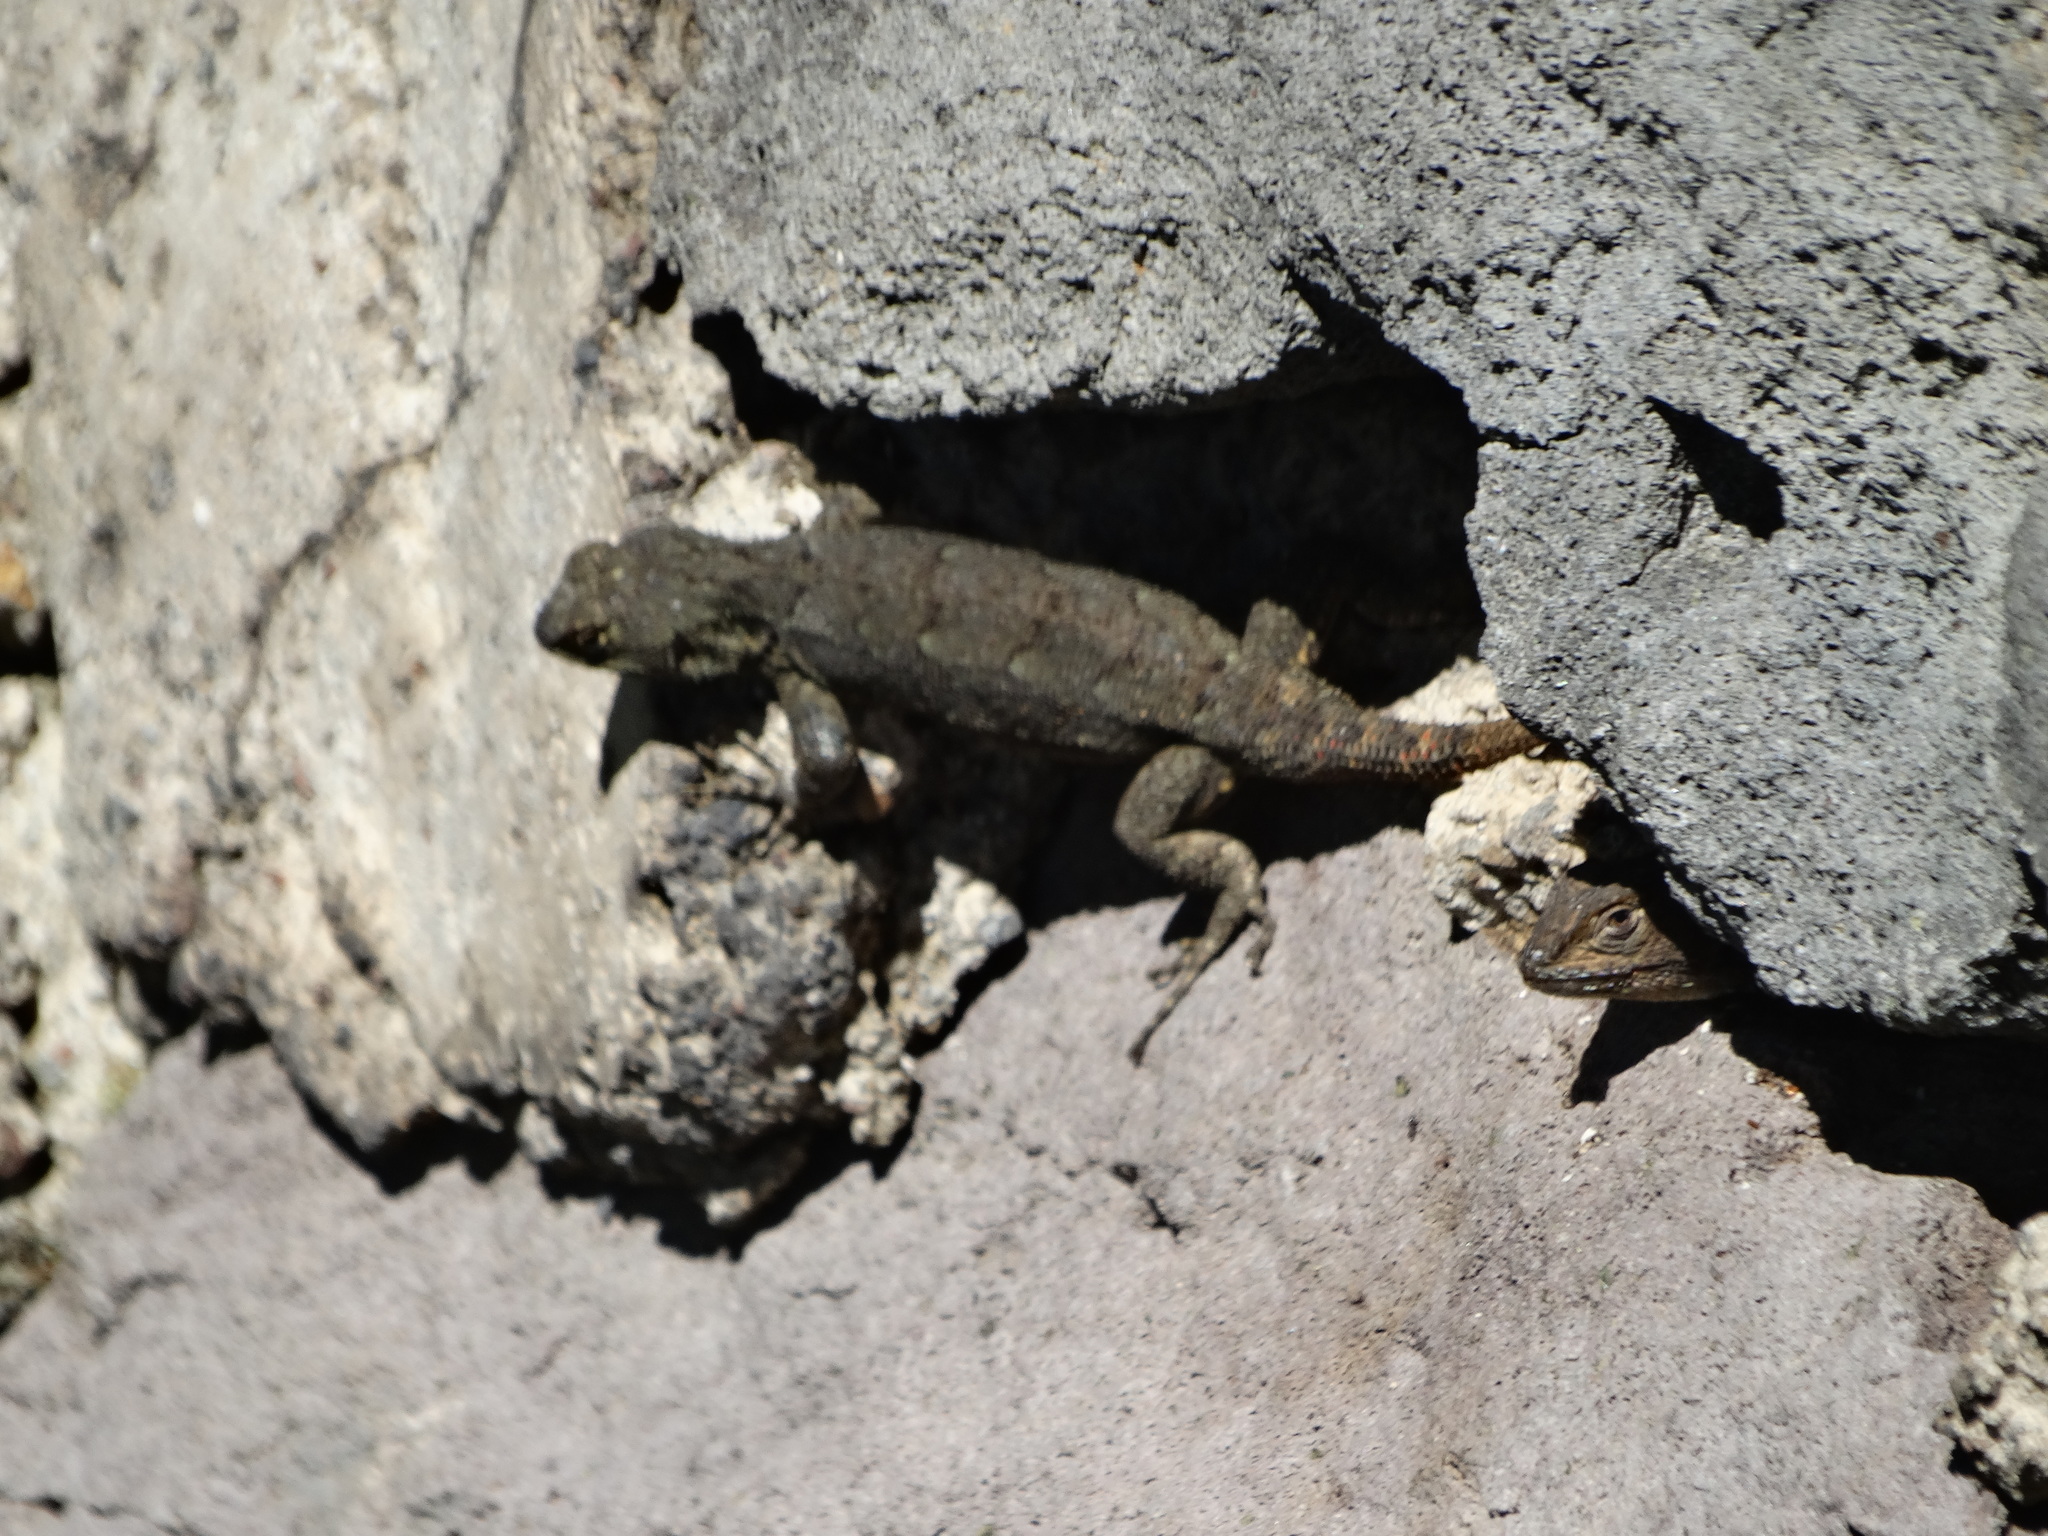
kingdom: Animalia
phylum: Chordata
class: Squamata
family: Phrynosomatidae
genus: Sceloporus
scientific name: Sceloporus grammicus
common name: Mesquite lizard
